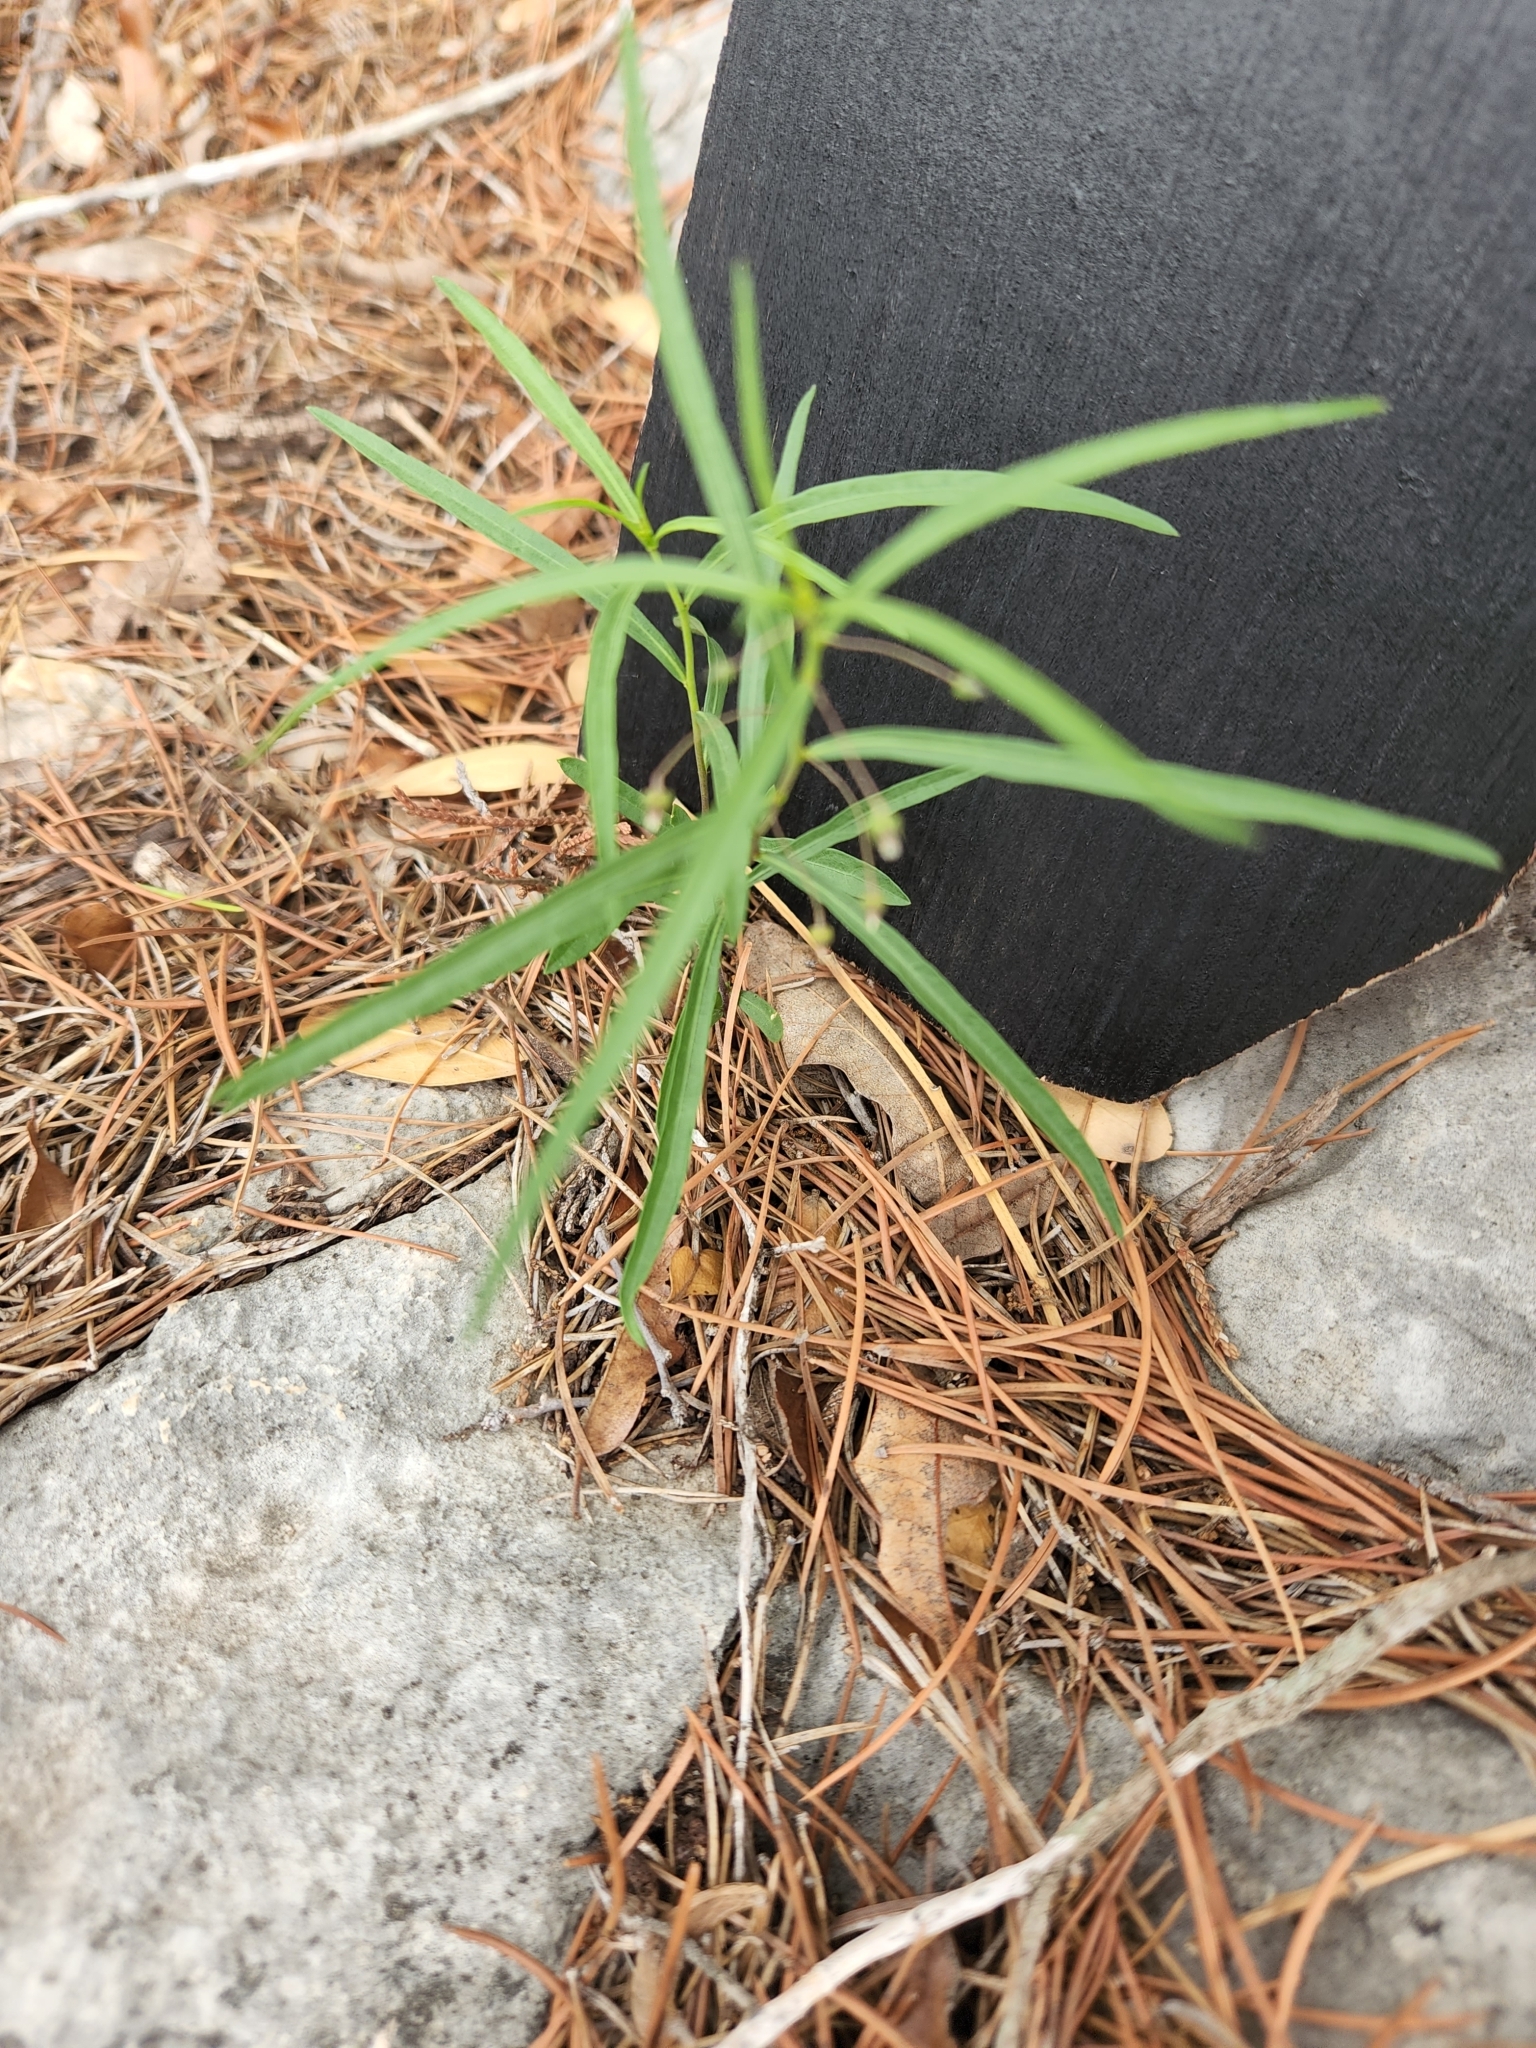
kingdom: Plantae
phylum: Tracheophyta
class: Magnoliopsida
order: Malpighiales
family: Violaceae
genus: Pombalia
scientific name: Pombalia verticillata
